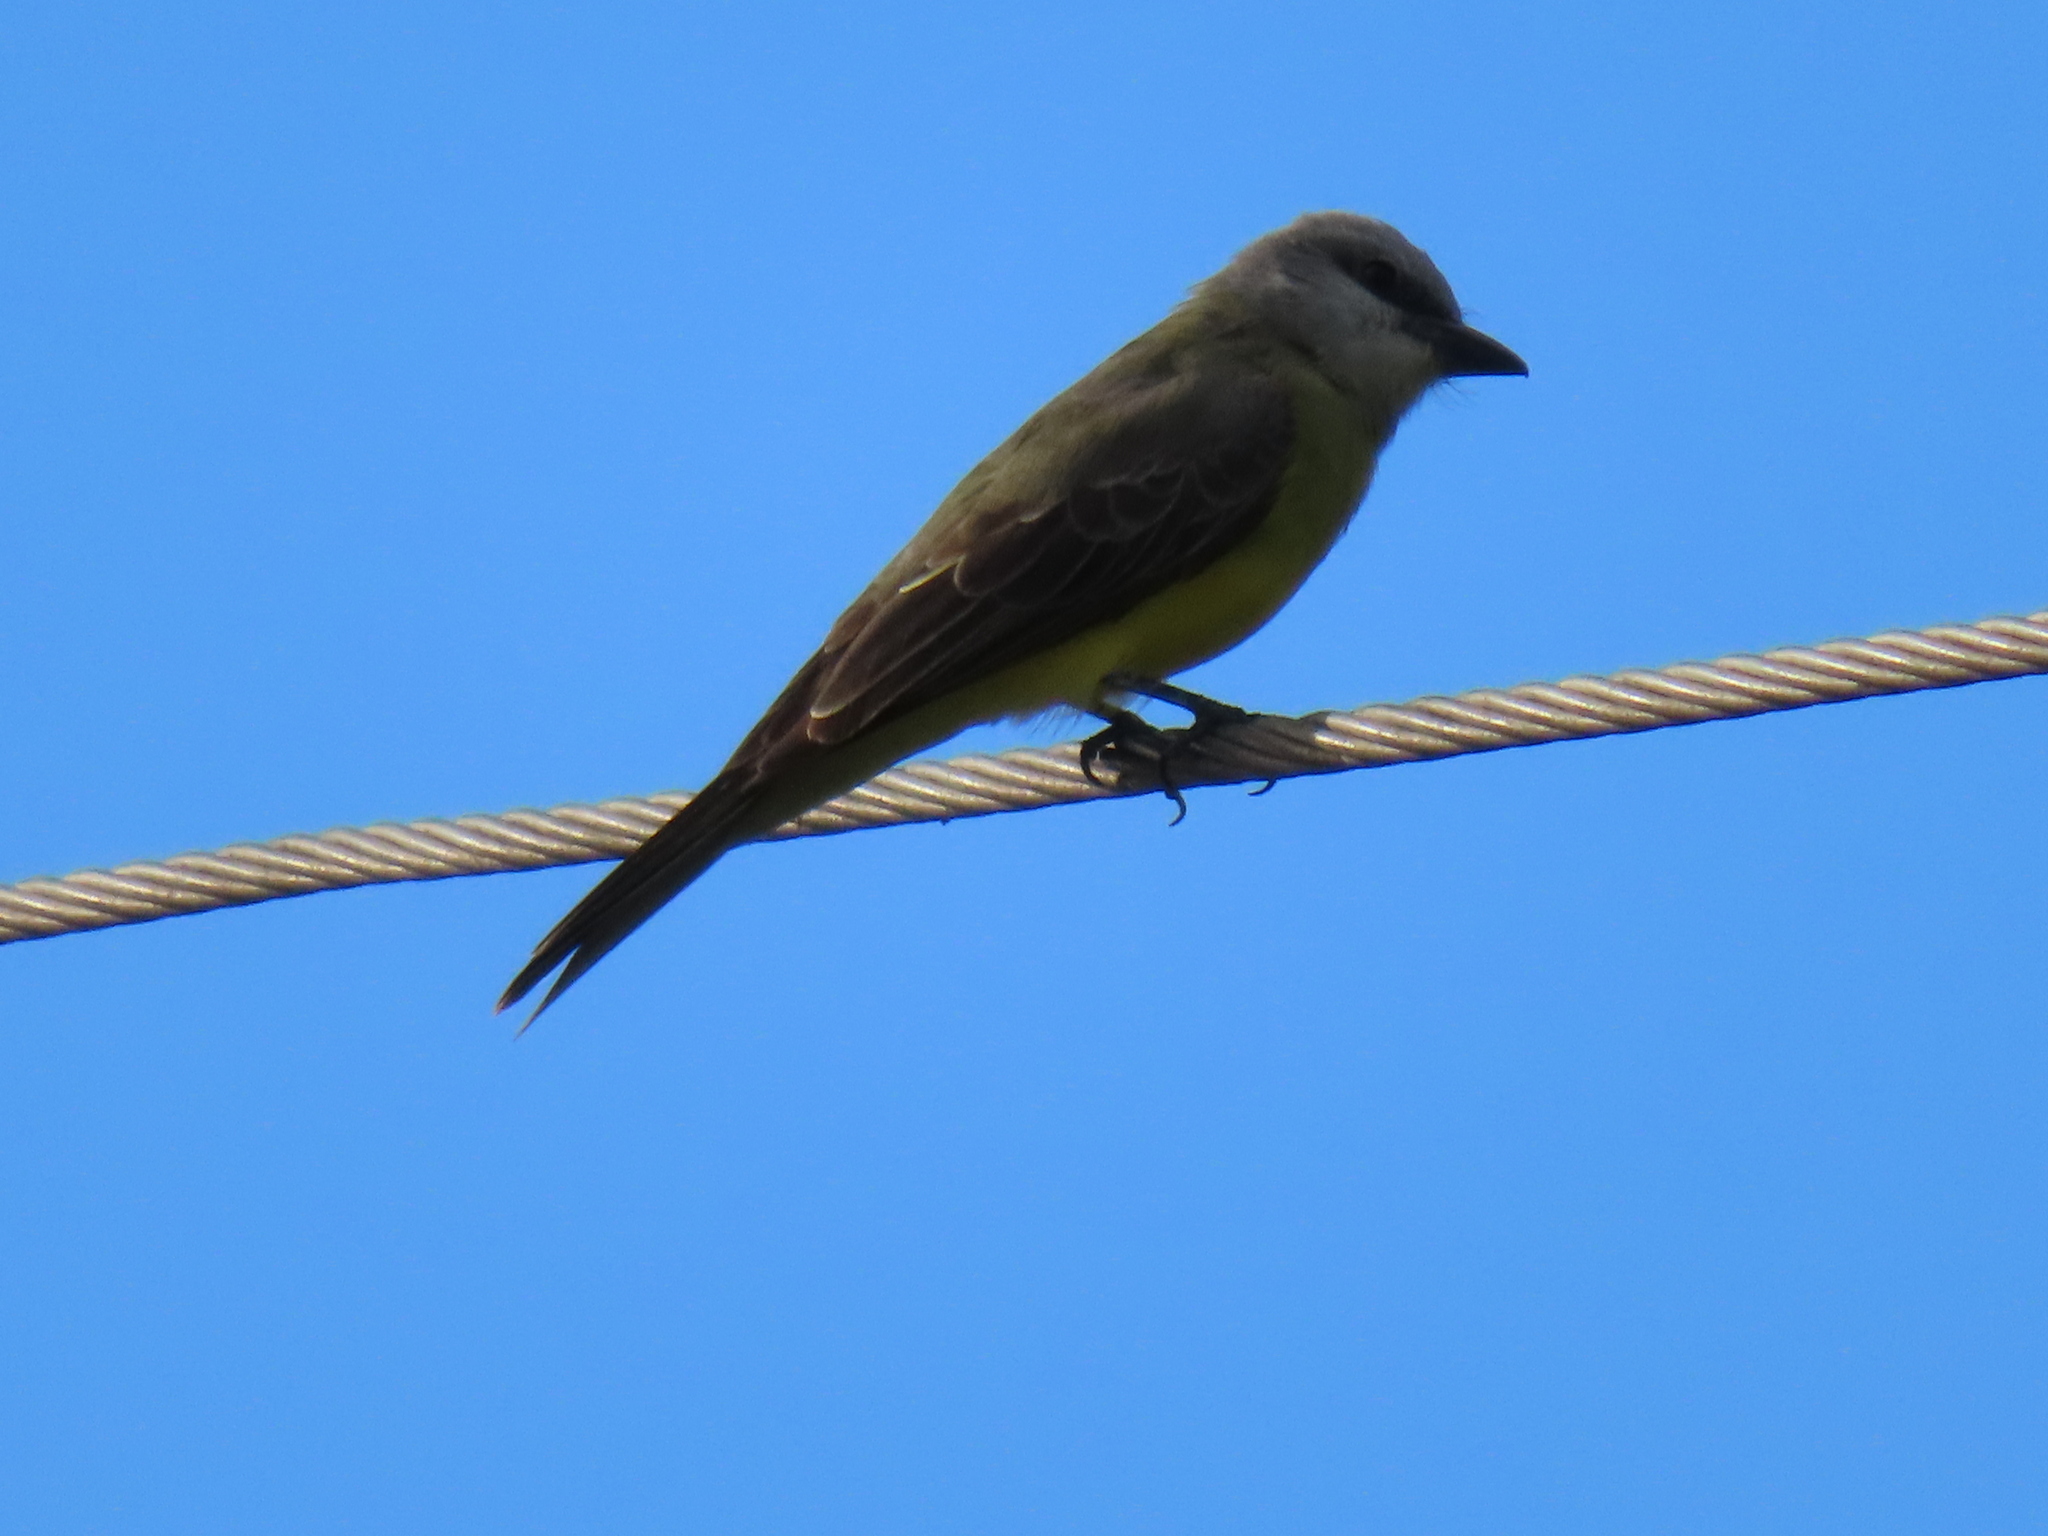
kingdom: Animalia
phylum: Chordata
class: Aves
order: Passeriformes
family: Tyrannidae
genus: Tyrannus
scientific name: Tyrannus melancholicus
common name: Tropical kingbird
